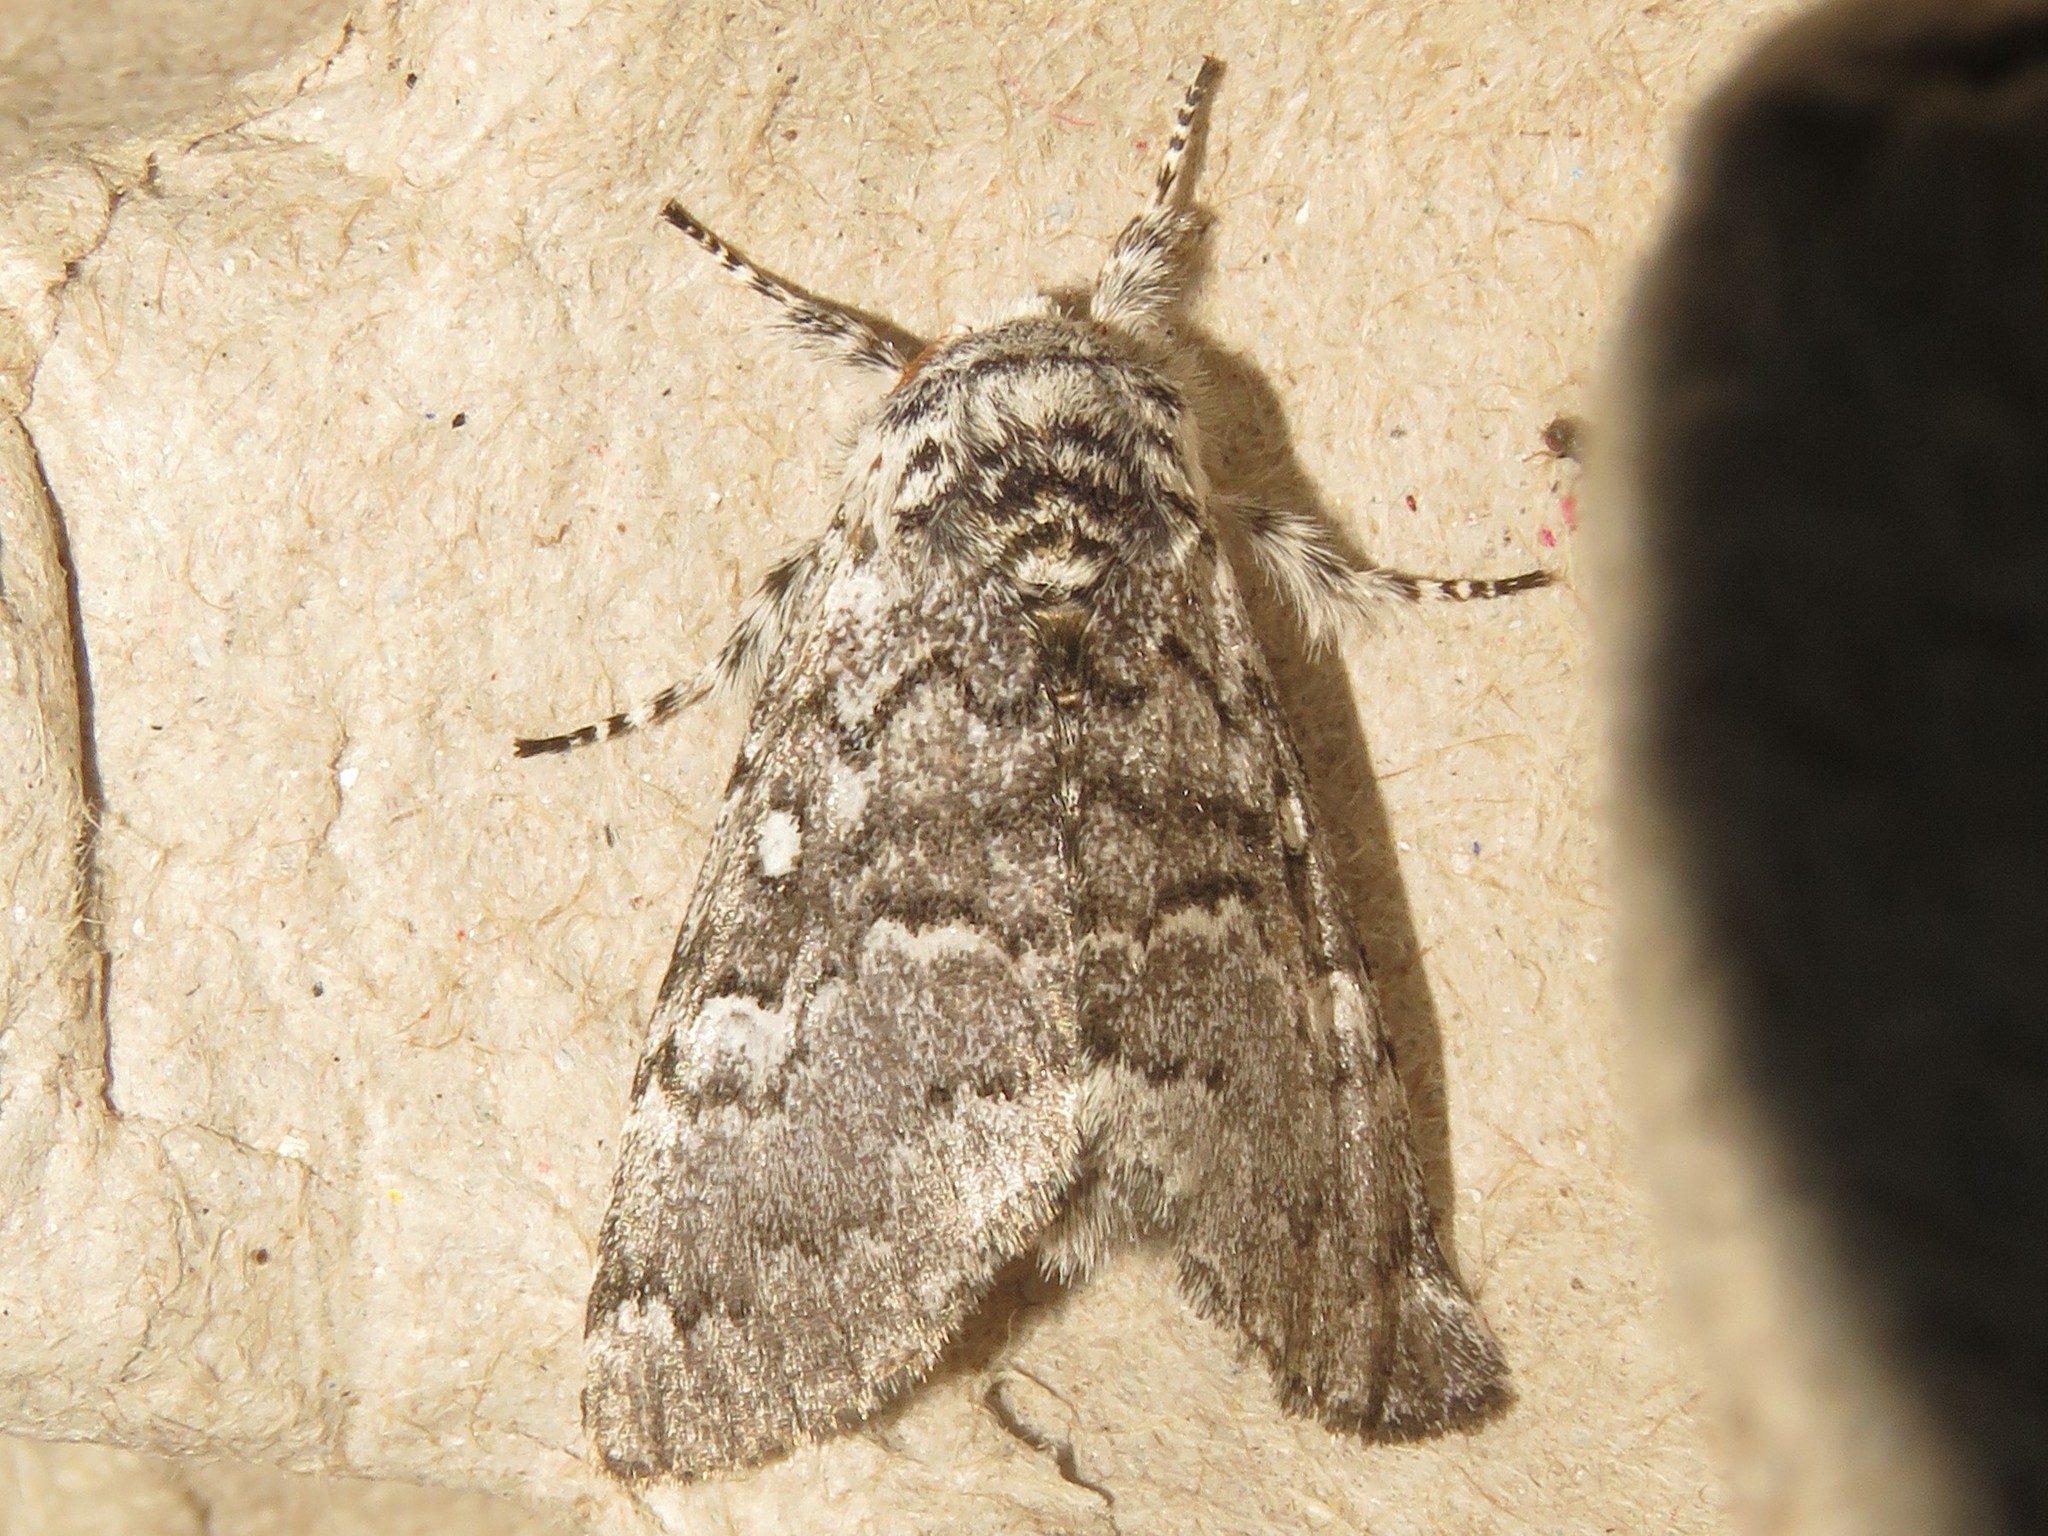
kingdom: Animalia
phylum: Arthropoda
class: Insecta
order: Lepidoptera
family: Noctuidae
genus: Colocasia
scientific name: Colocasia propinquilinea
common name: Close-banded demas
